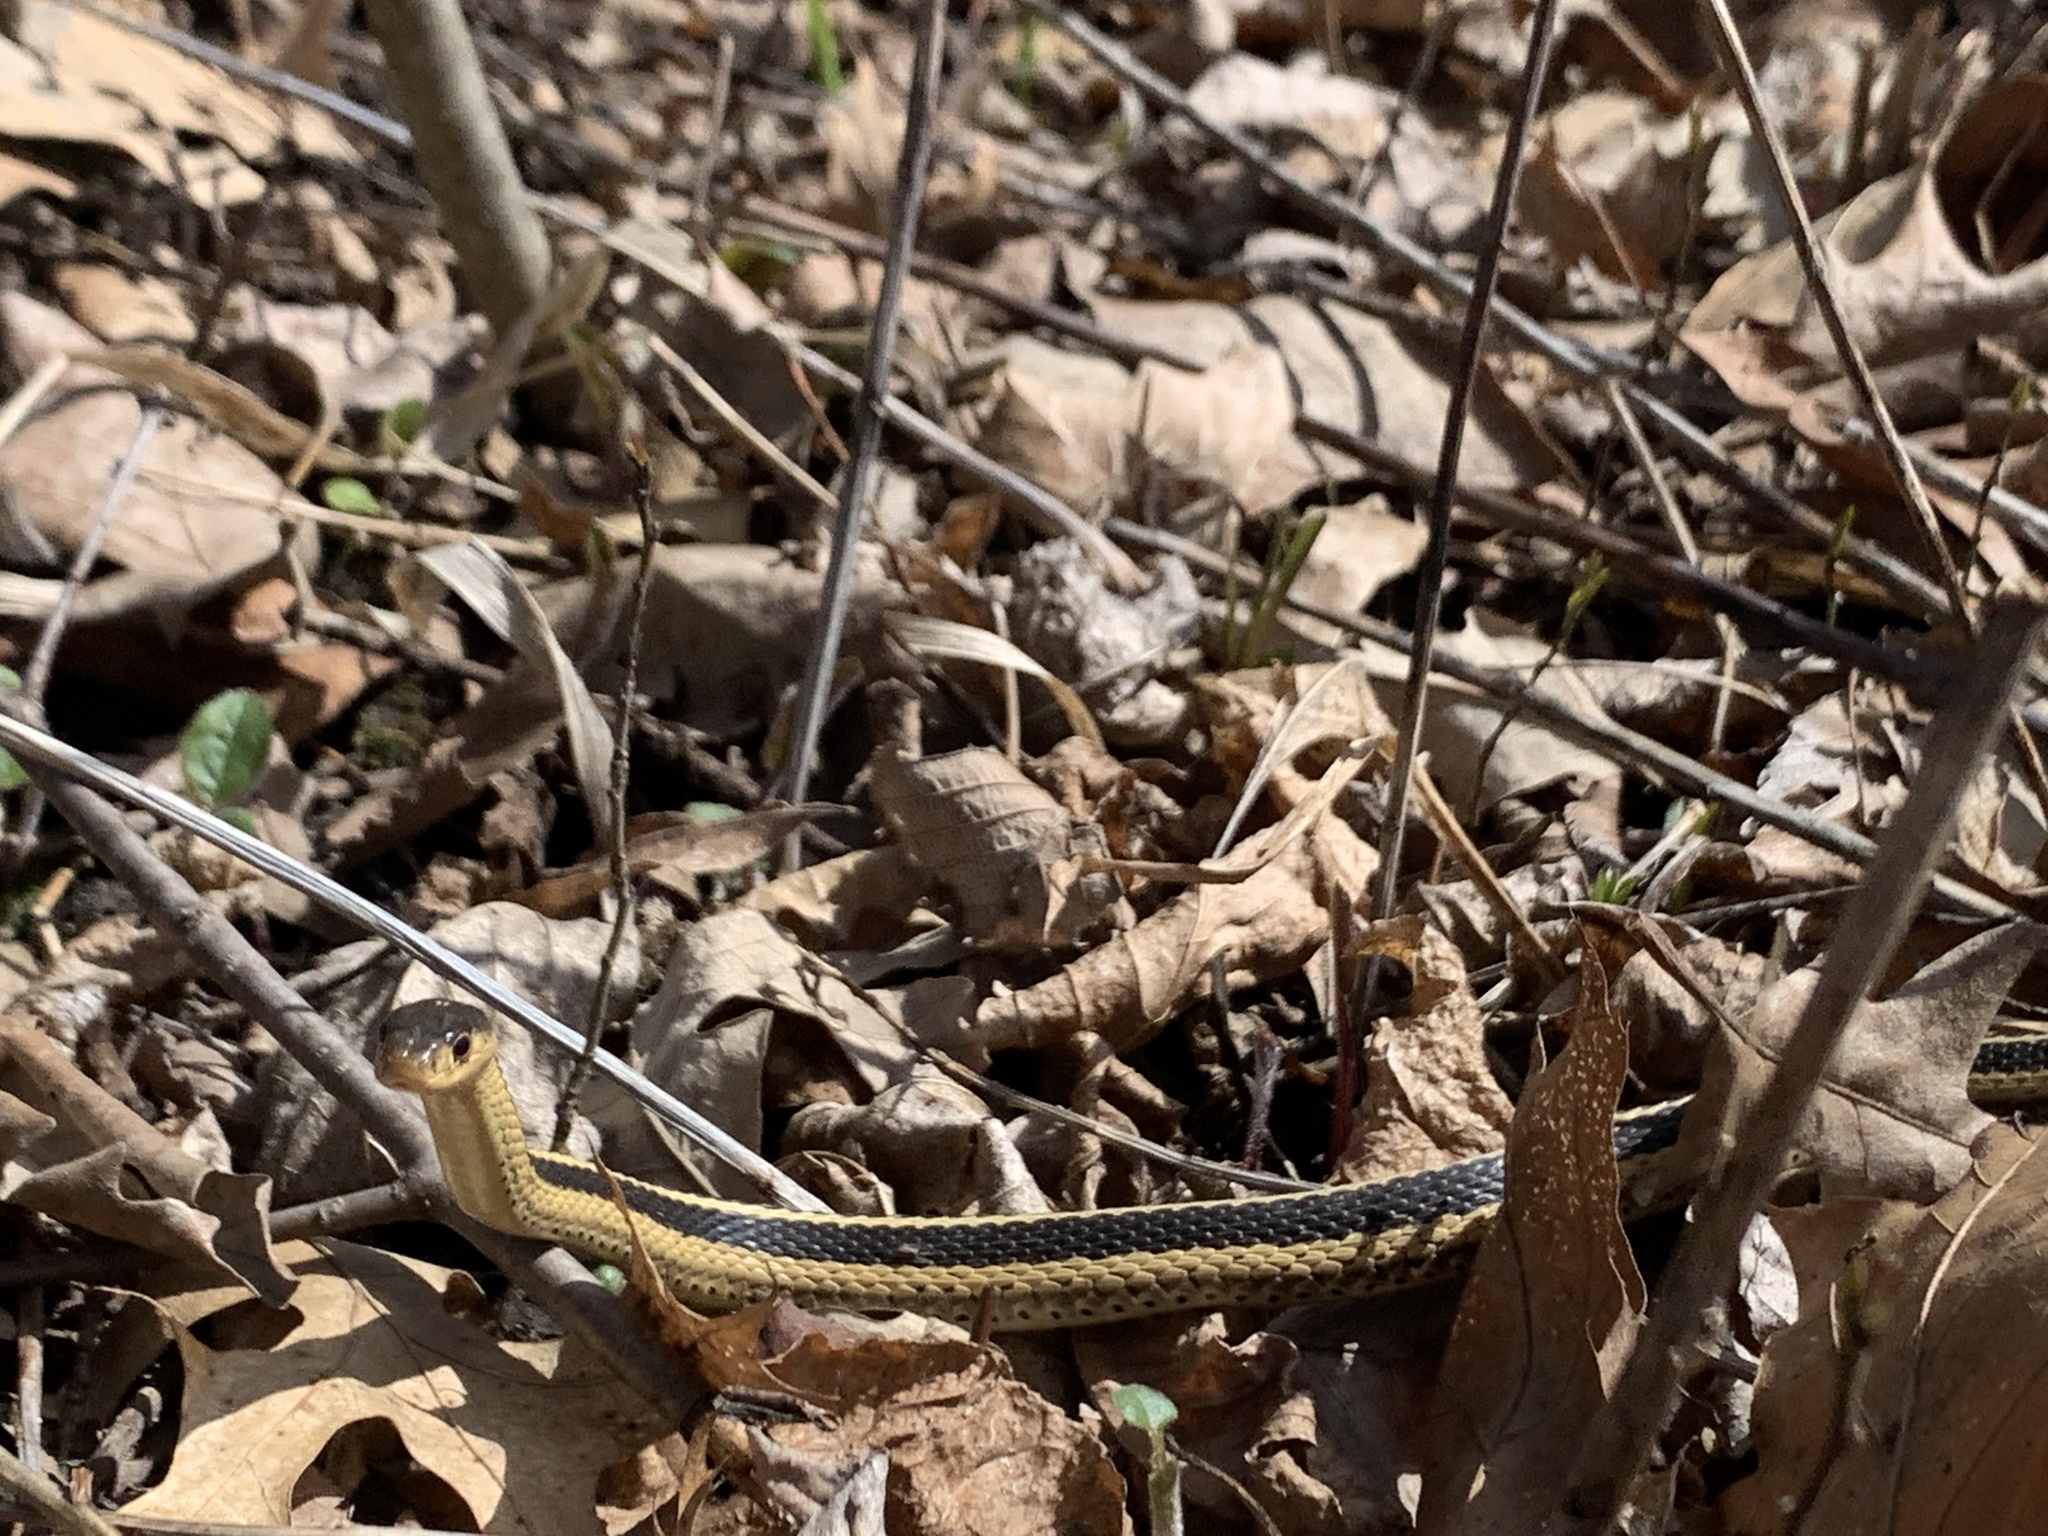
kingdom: Animalia
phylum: Chordata
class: Squamata
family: Colubridae
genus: Thamnophis
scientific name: Thamnophis sirtalis
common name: Common garter snake
